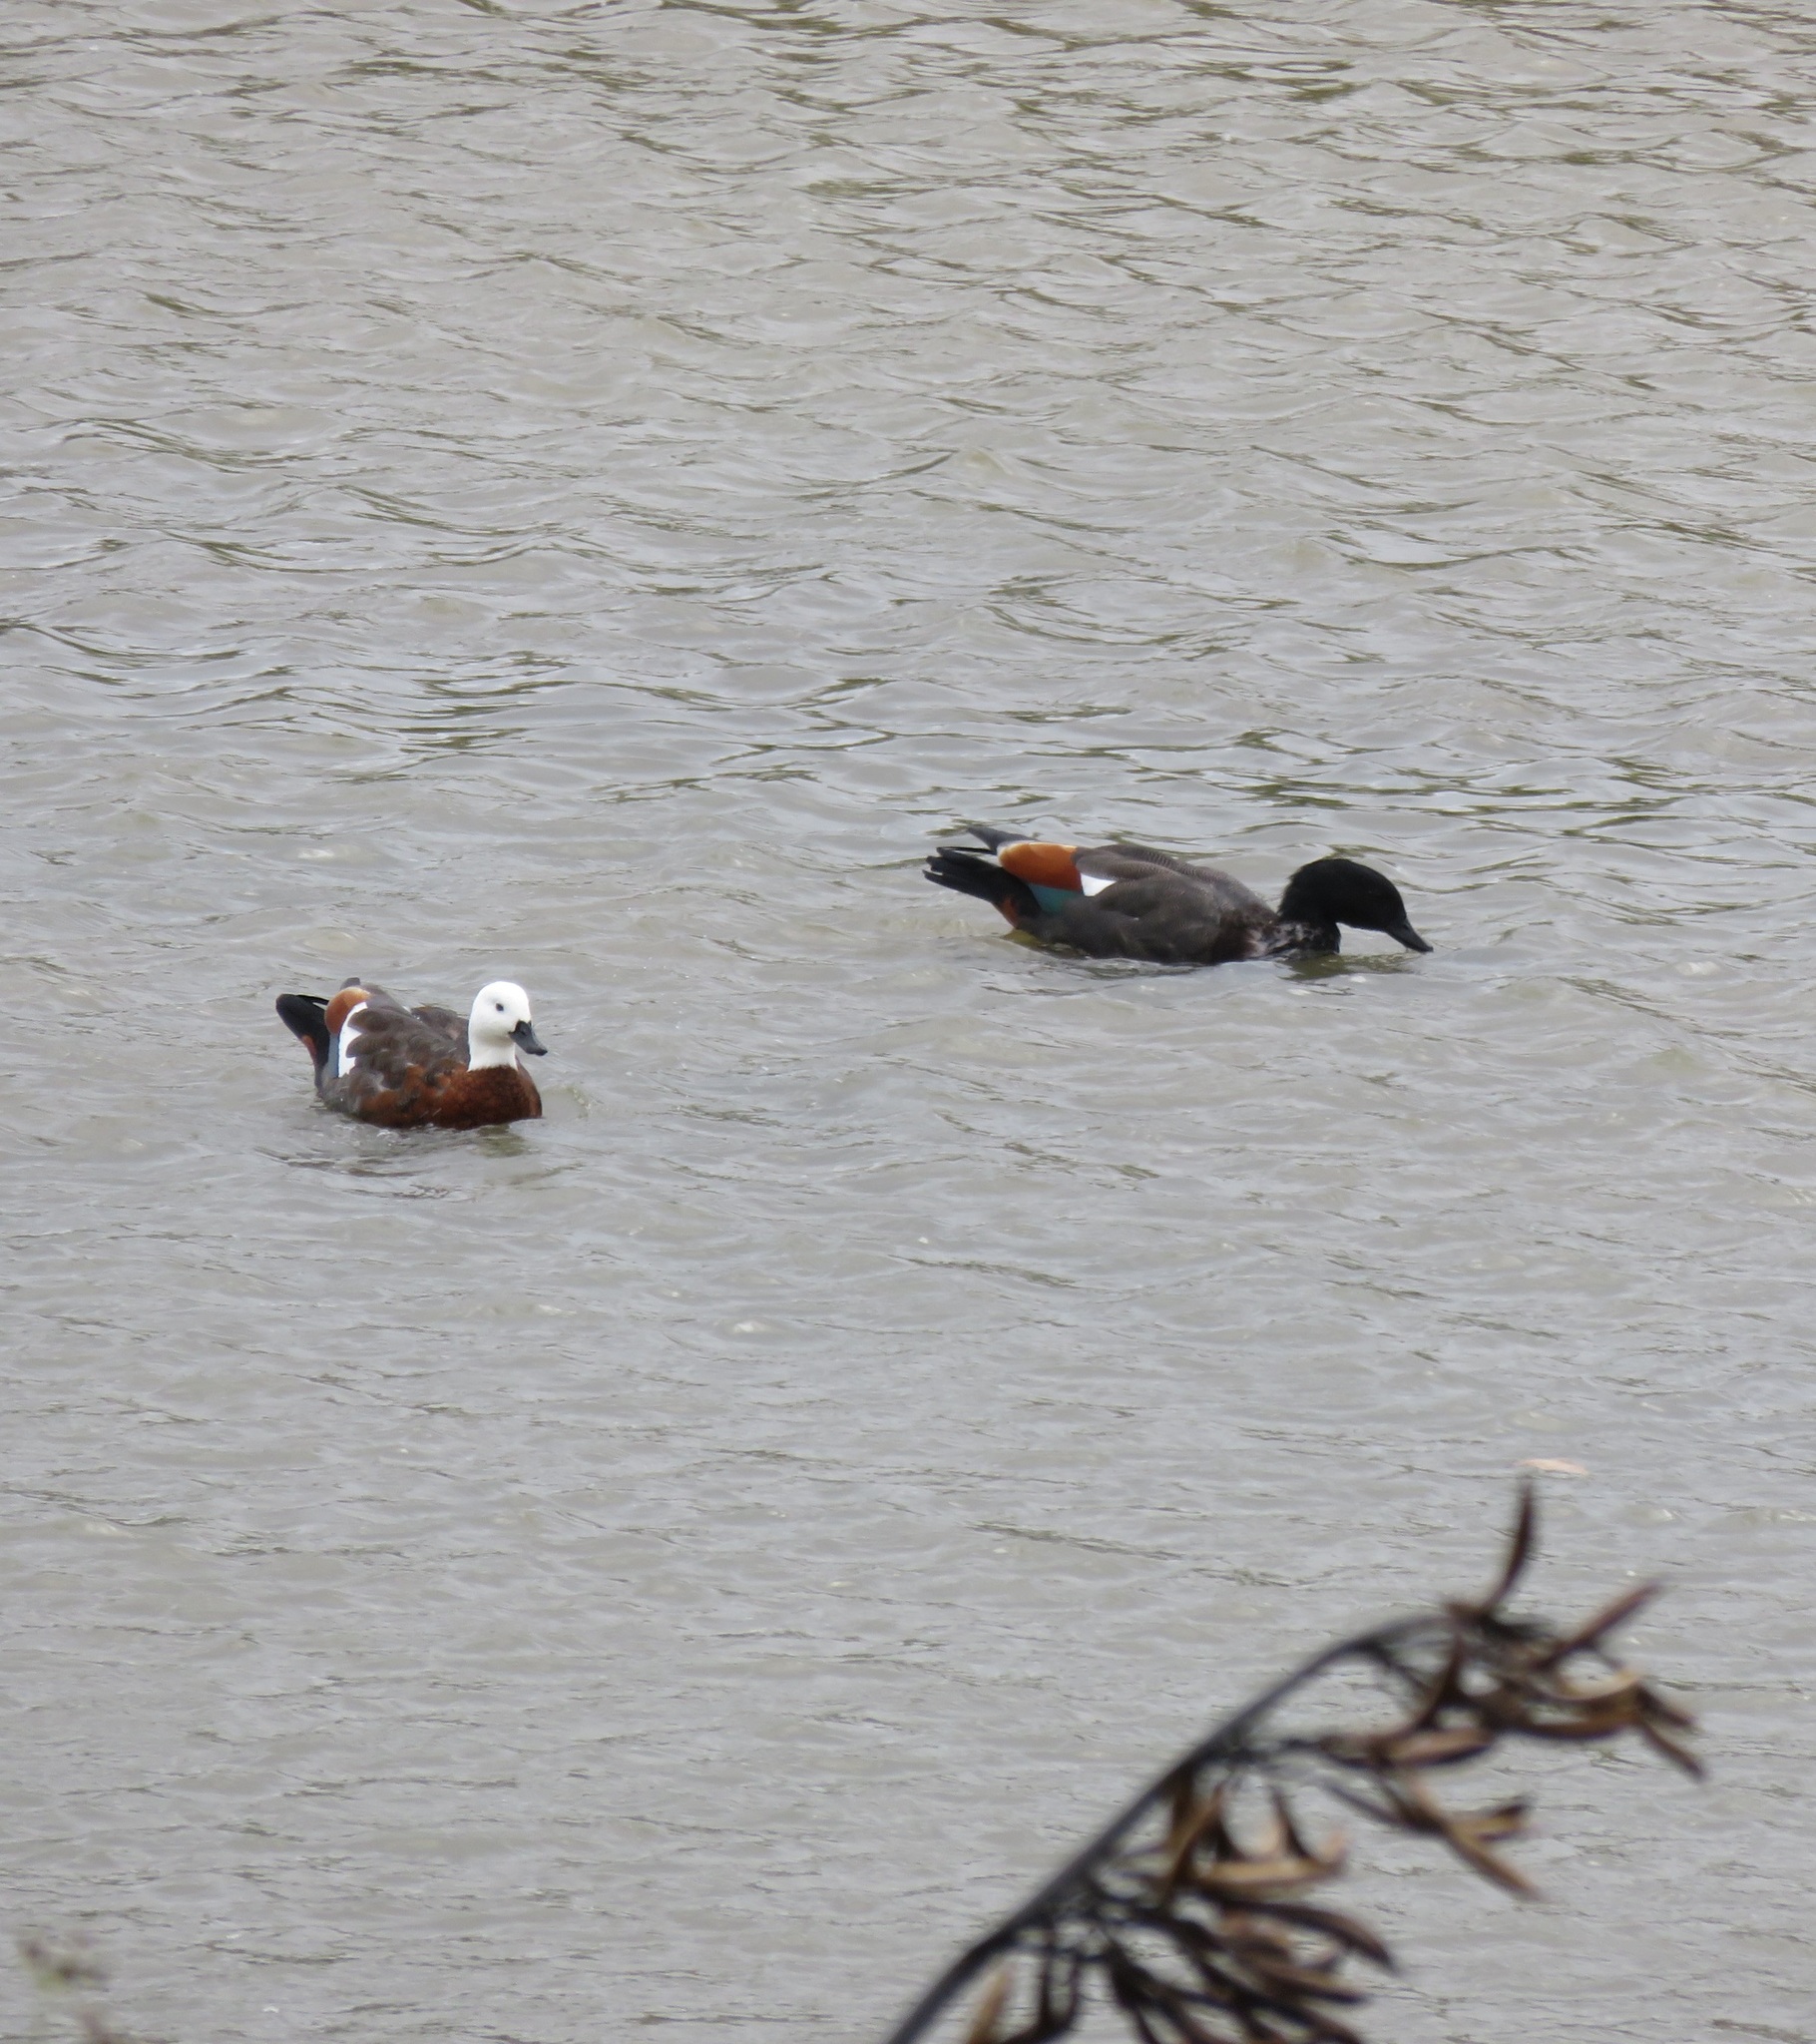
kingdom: Animalia
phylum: Chordata
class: Aves
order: Anseriformes
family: Anatidae
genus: Tadorna
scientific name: Tadorna variegata
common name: Paradise shelduck
